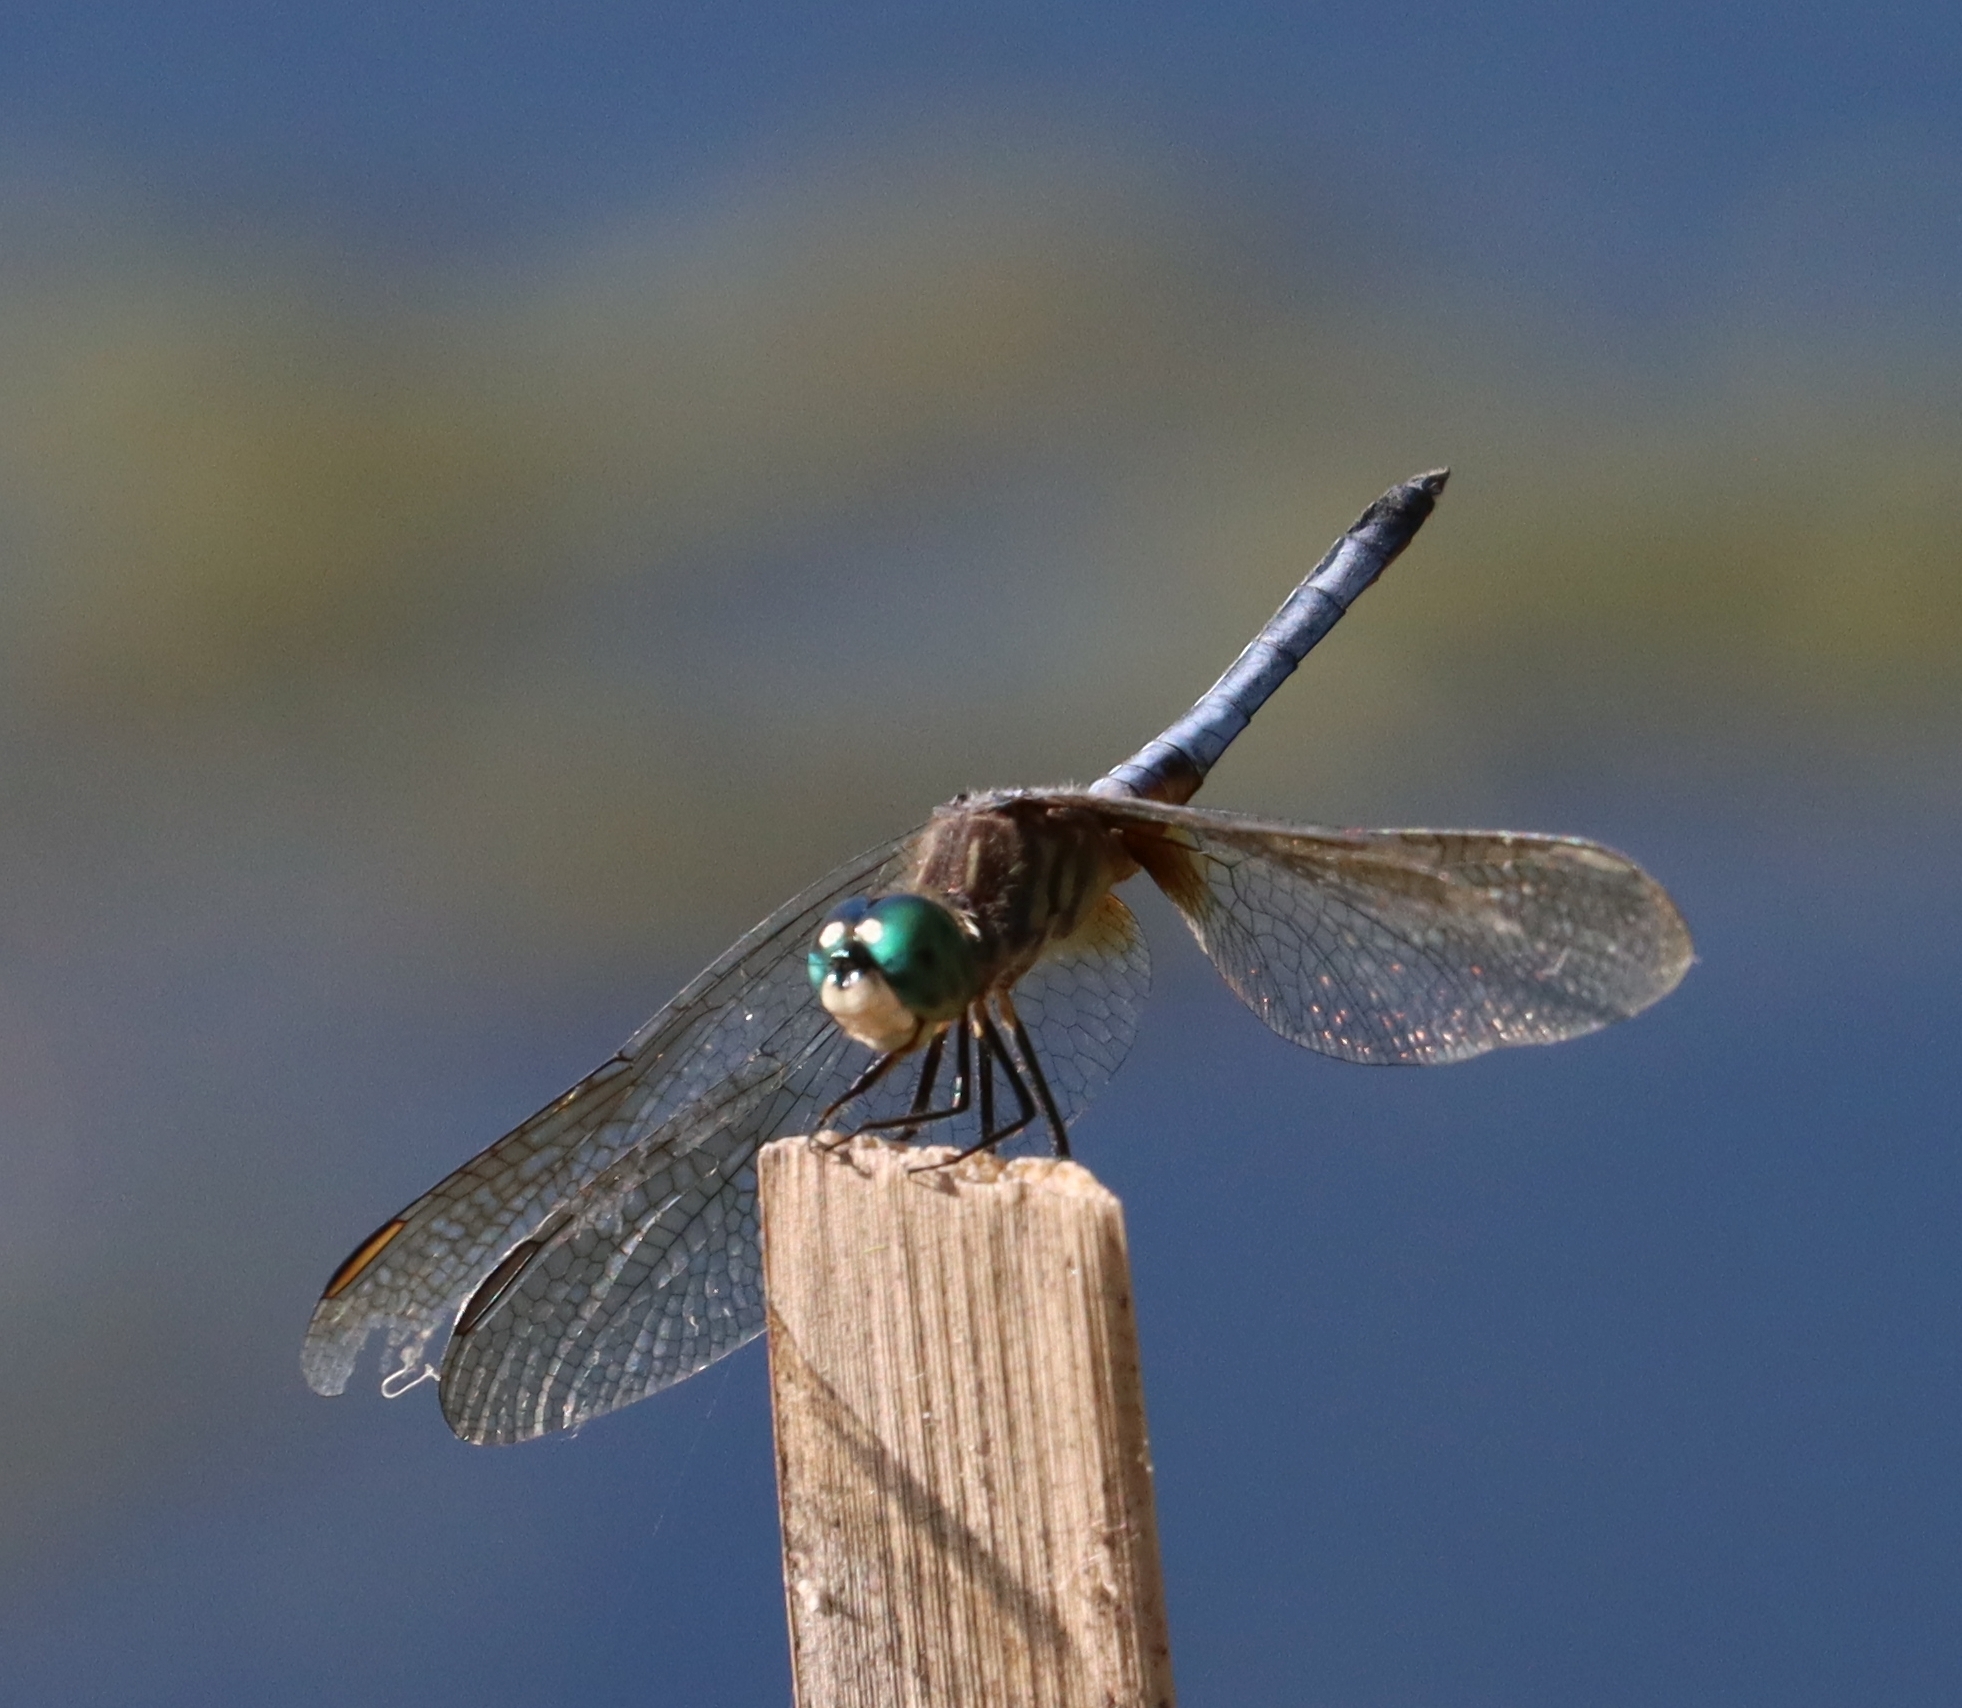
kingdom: Animalia
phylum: Arthropoda
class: Insecta
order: Odonata
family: Libellulidae
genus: Pachydiplax
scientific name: Pachydiplax longipennis
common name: Blue dasher
